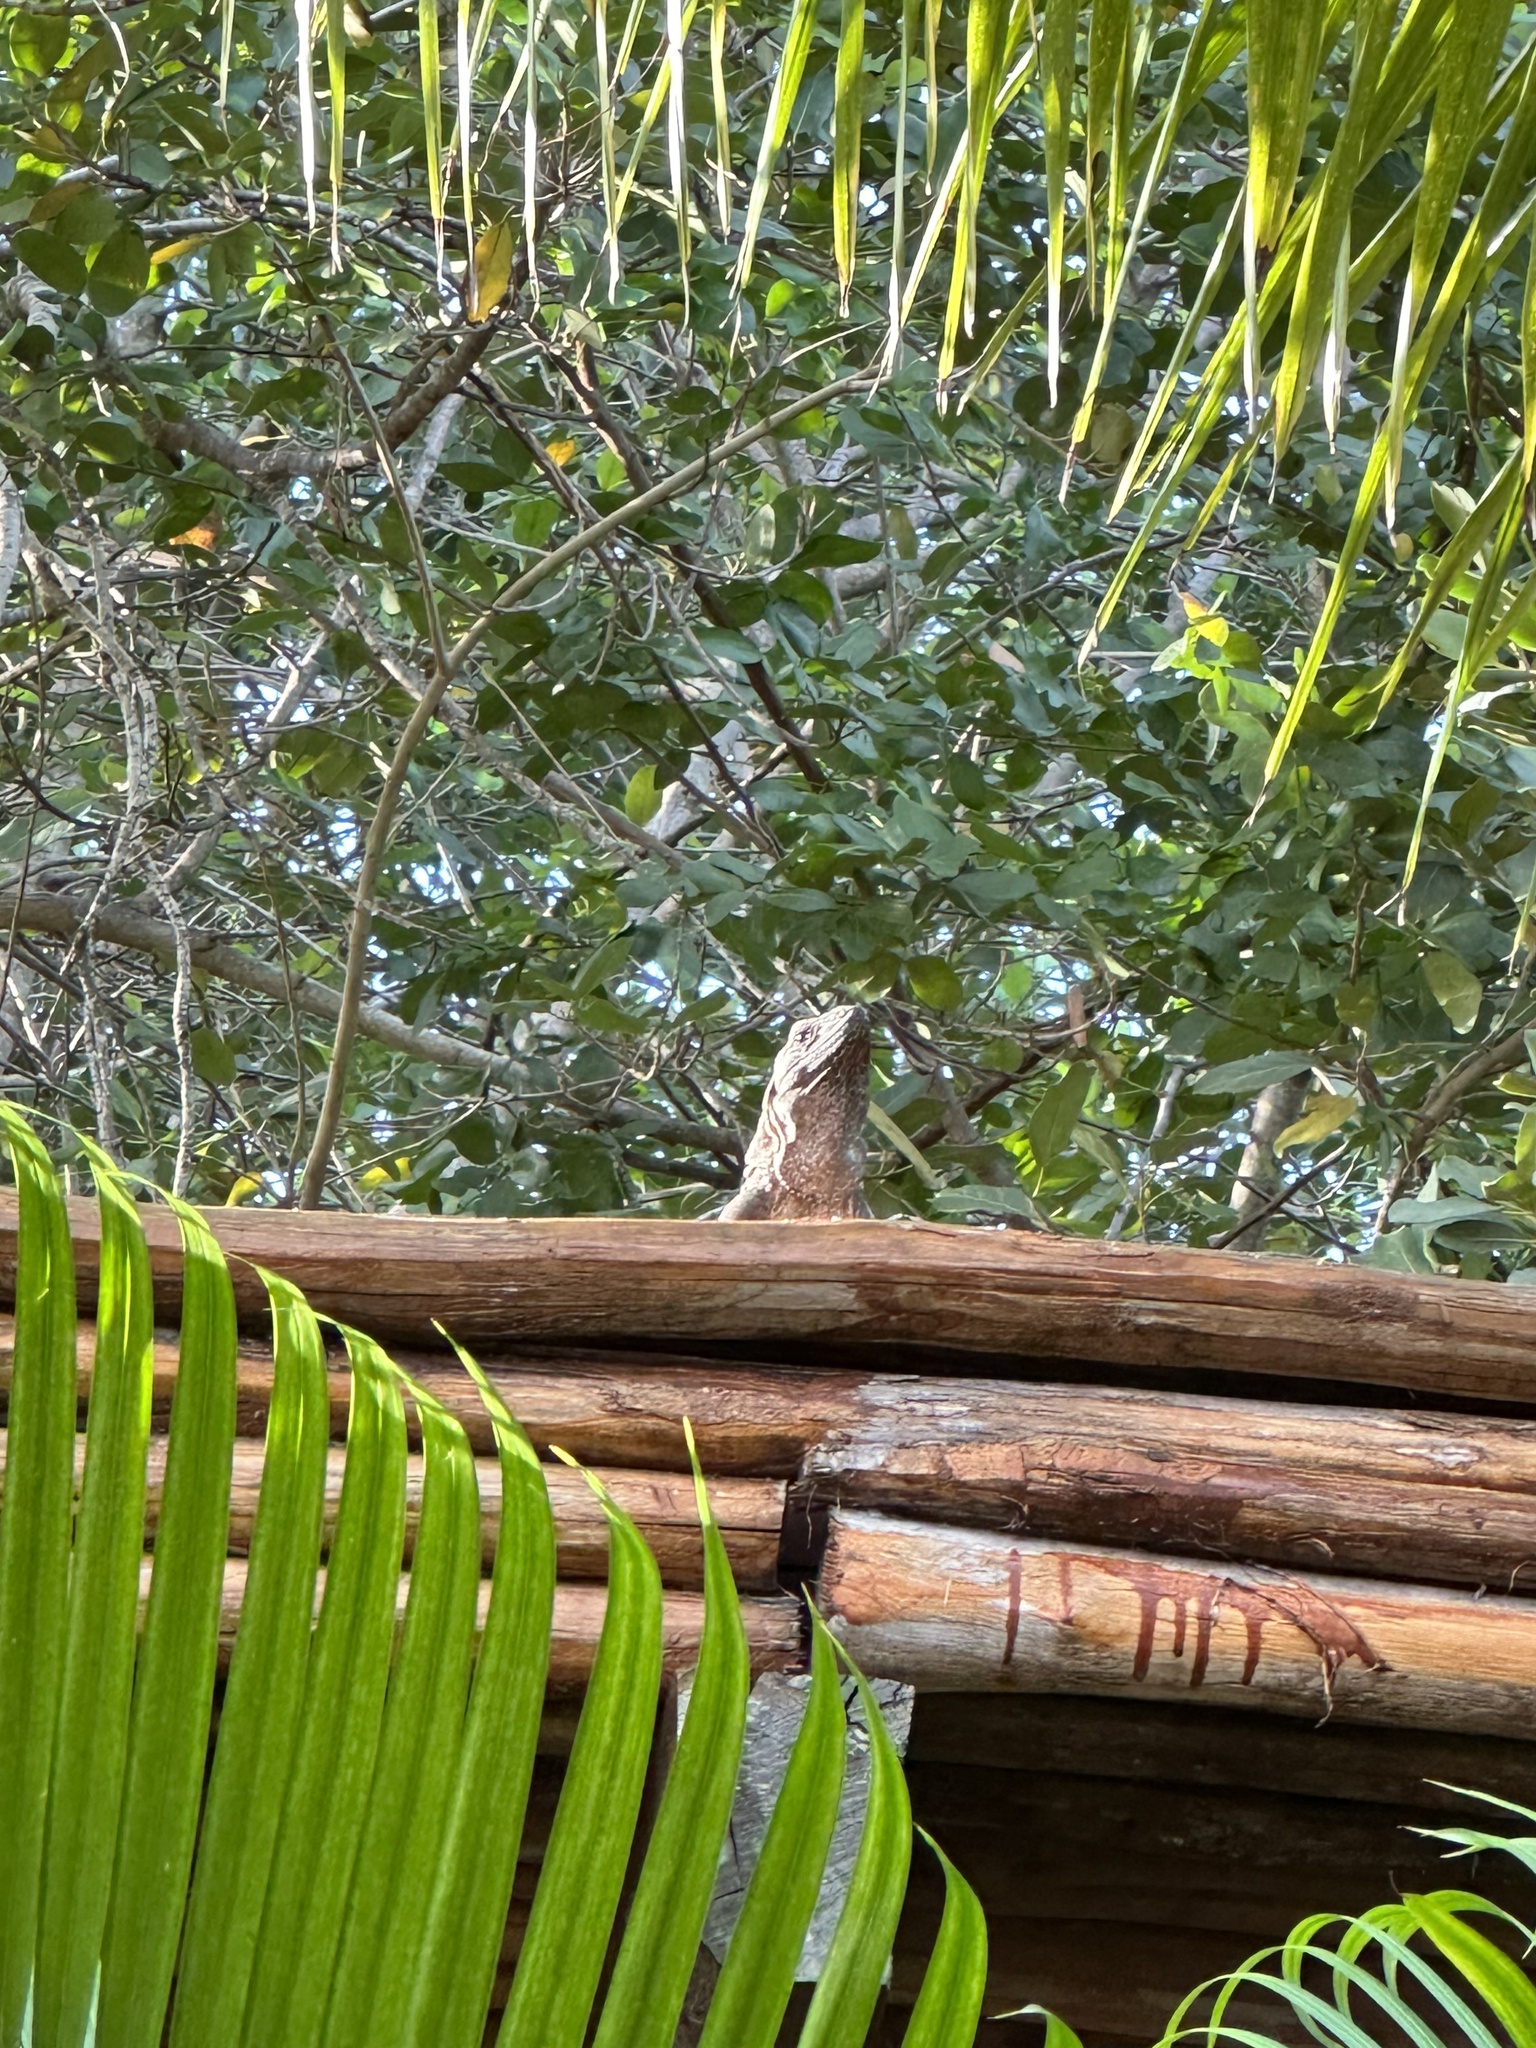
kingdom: Animalia
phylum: Chordata
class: Squamata
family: Iguanidae
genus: Ctenosaura
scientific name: Ctenosaura similis
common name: Black spiny-tailed iguana
